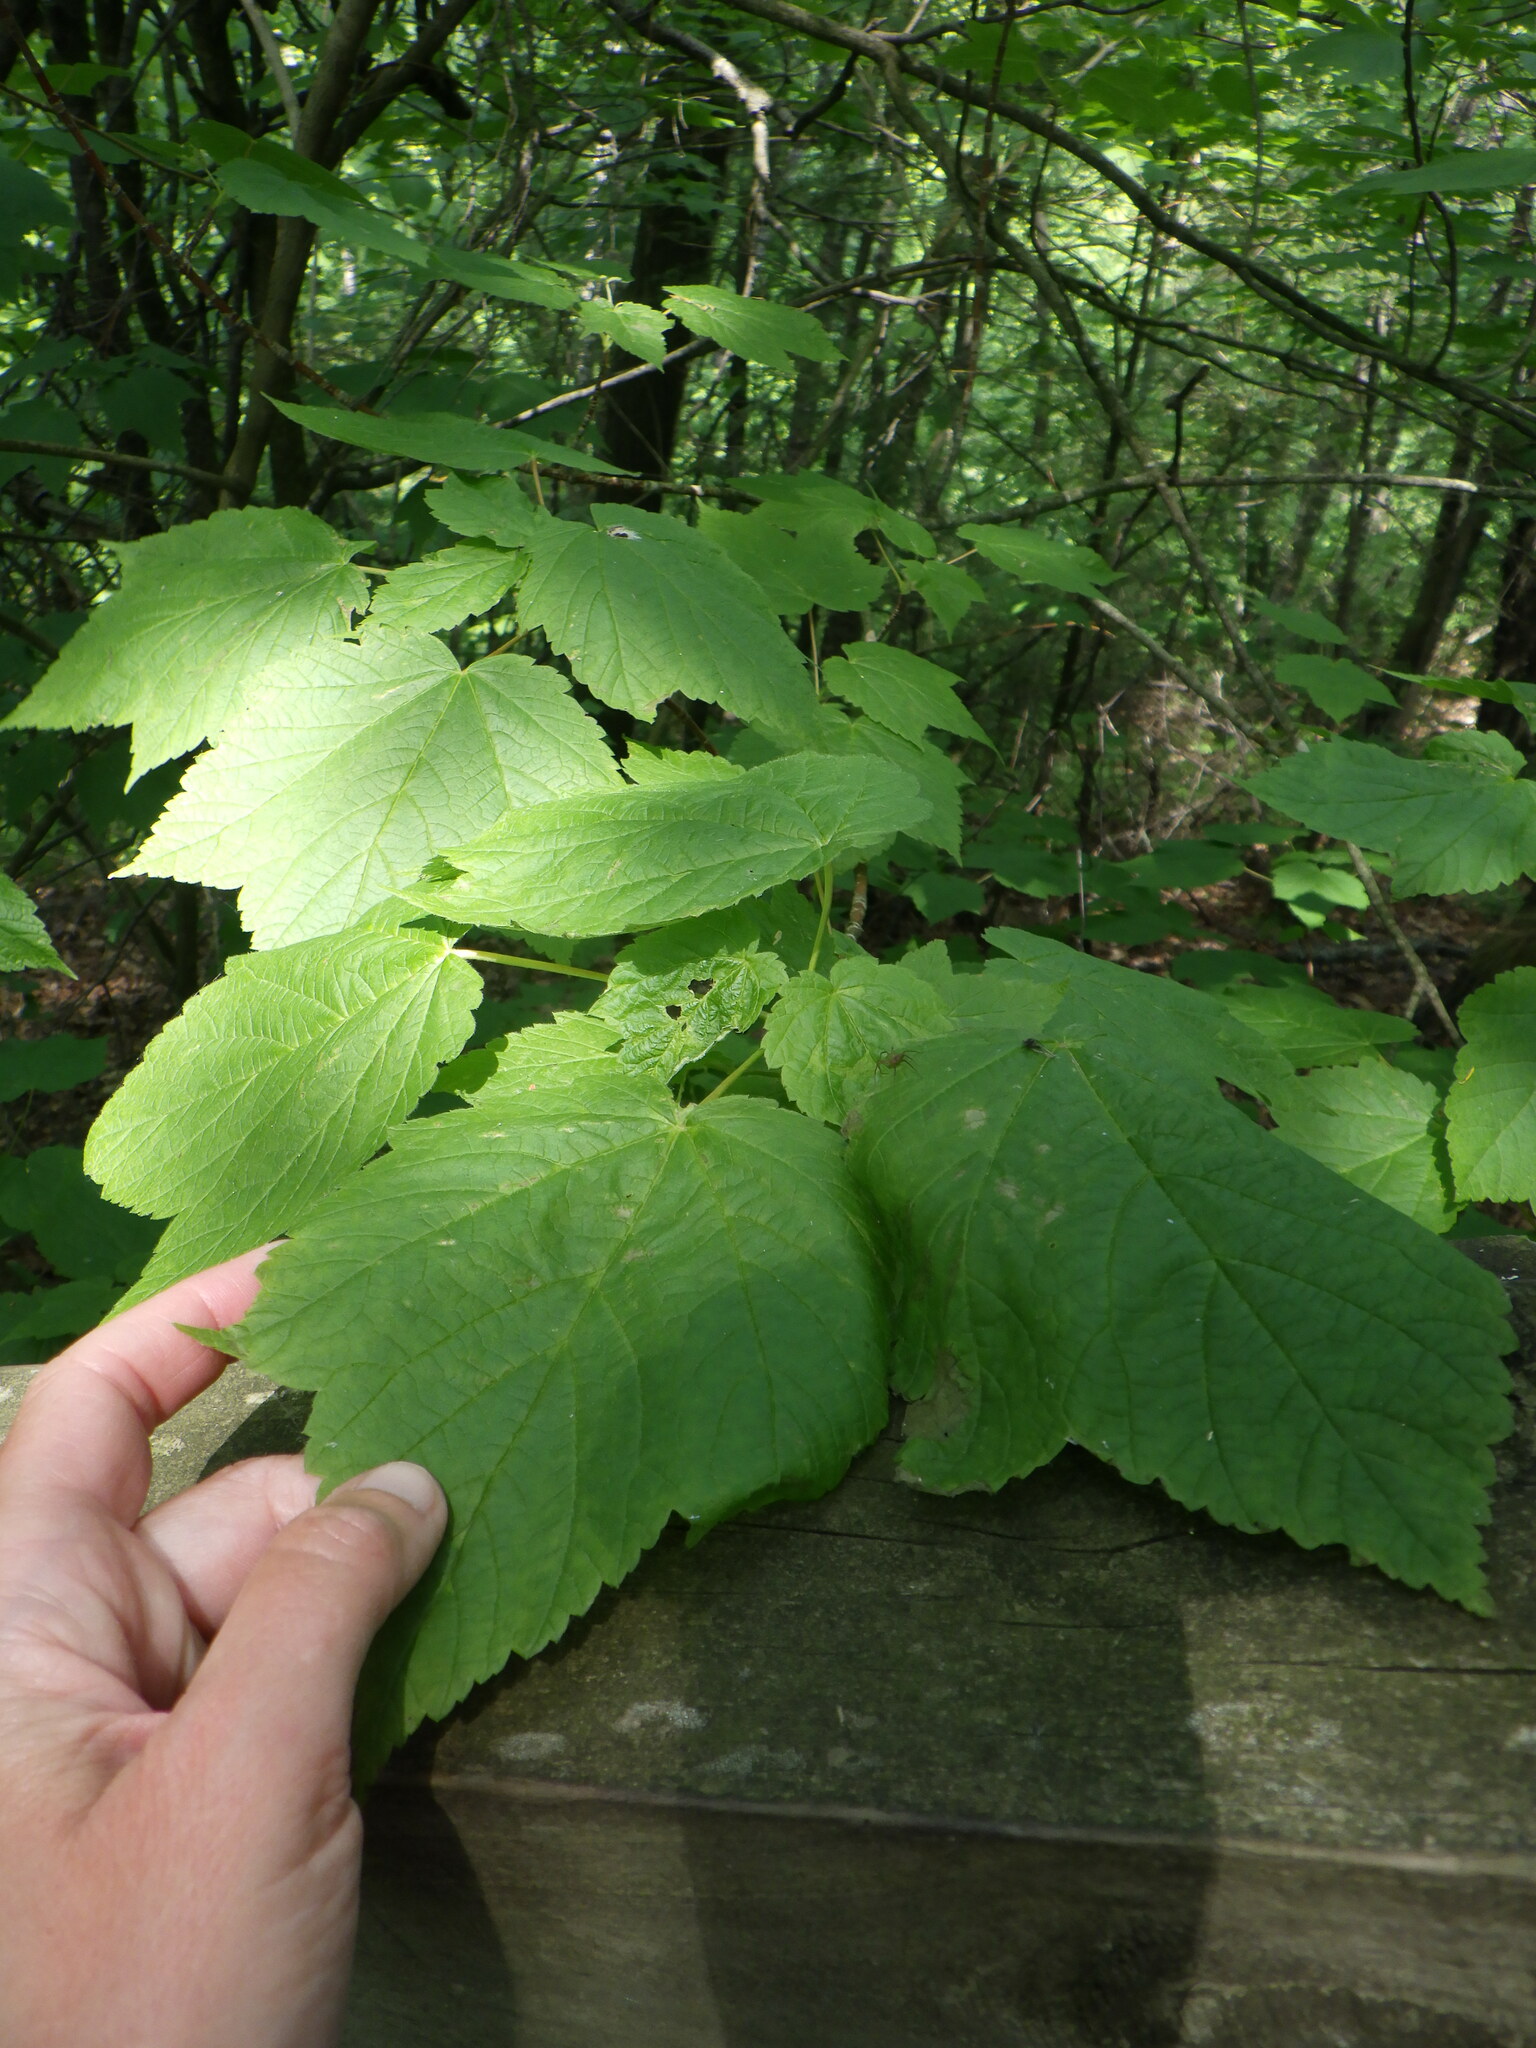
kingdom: Plantae
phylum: Tracheophyta
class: Magnoliopsida
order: Sapindales
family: Sapindaceae
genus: Acer
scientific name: Acer spicatum
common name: Mountain maple
